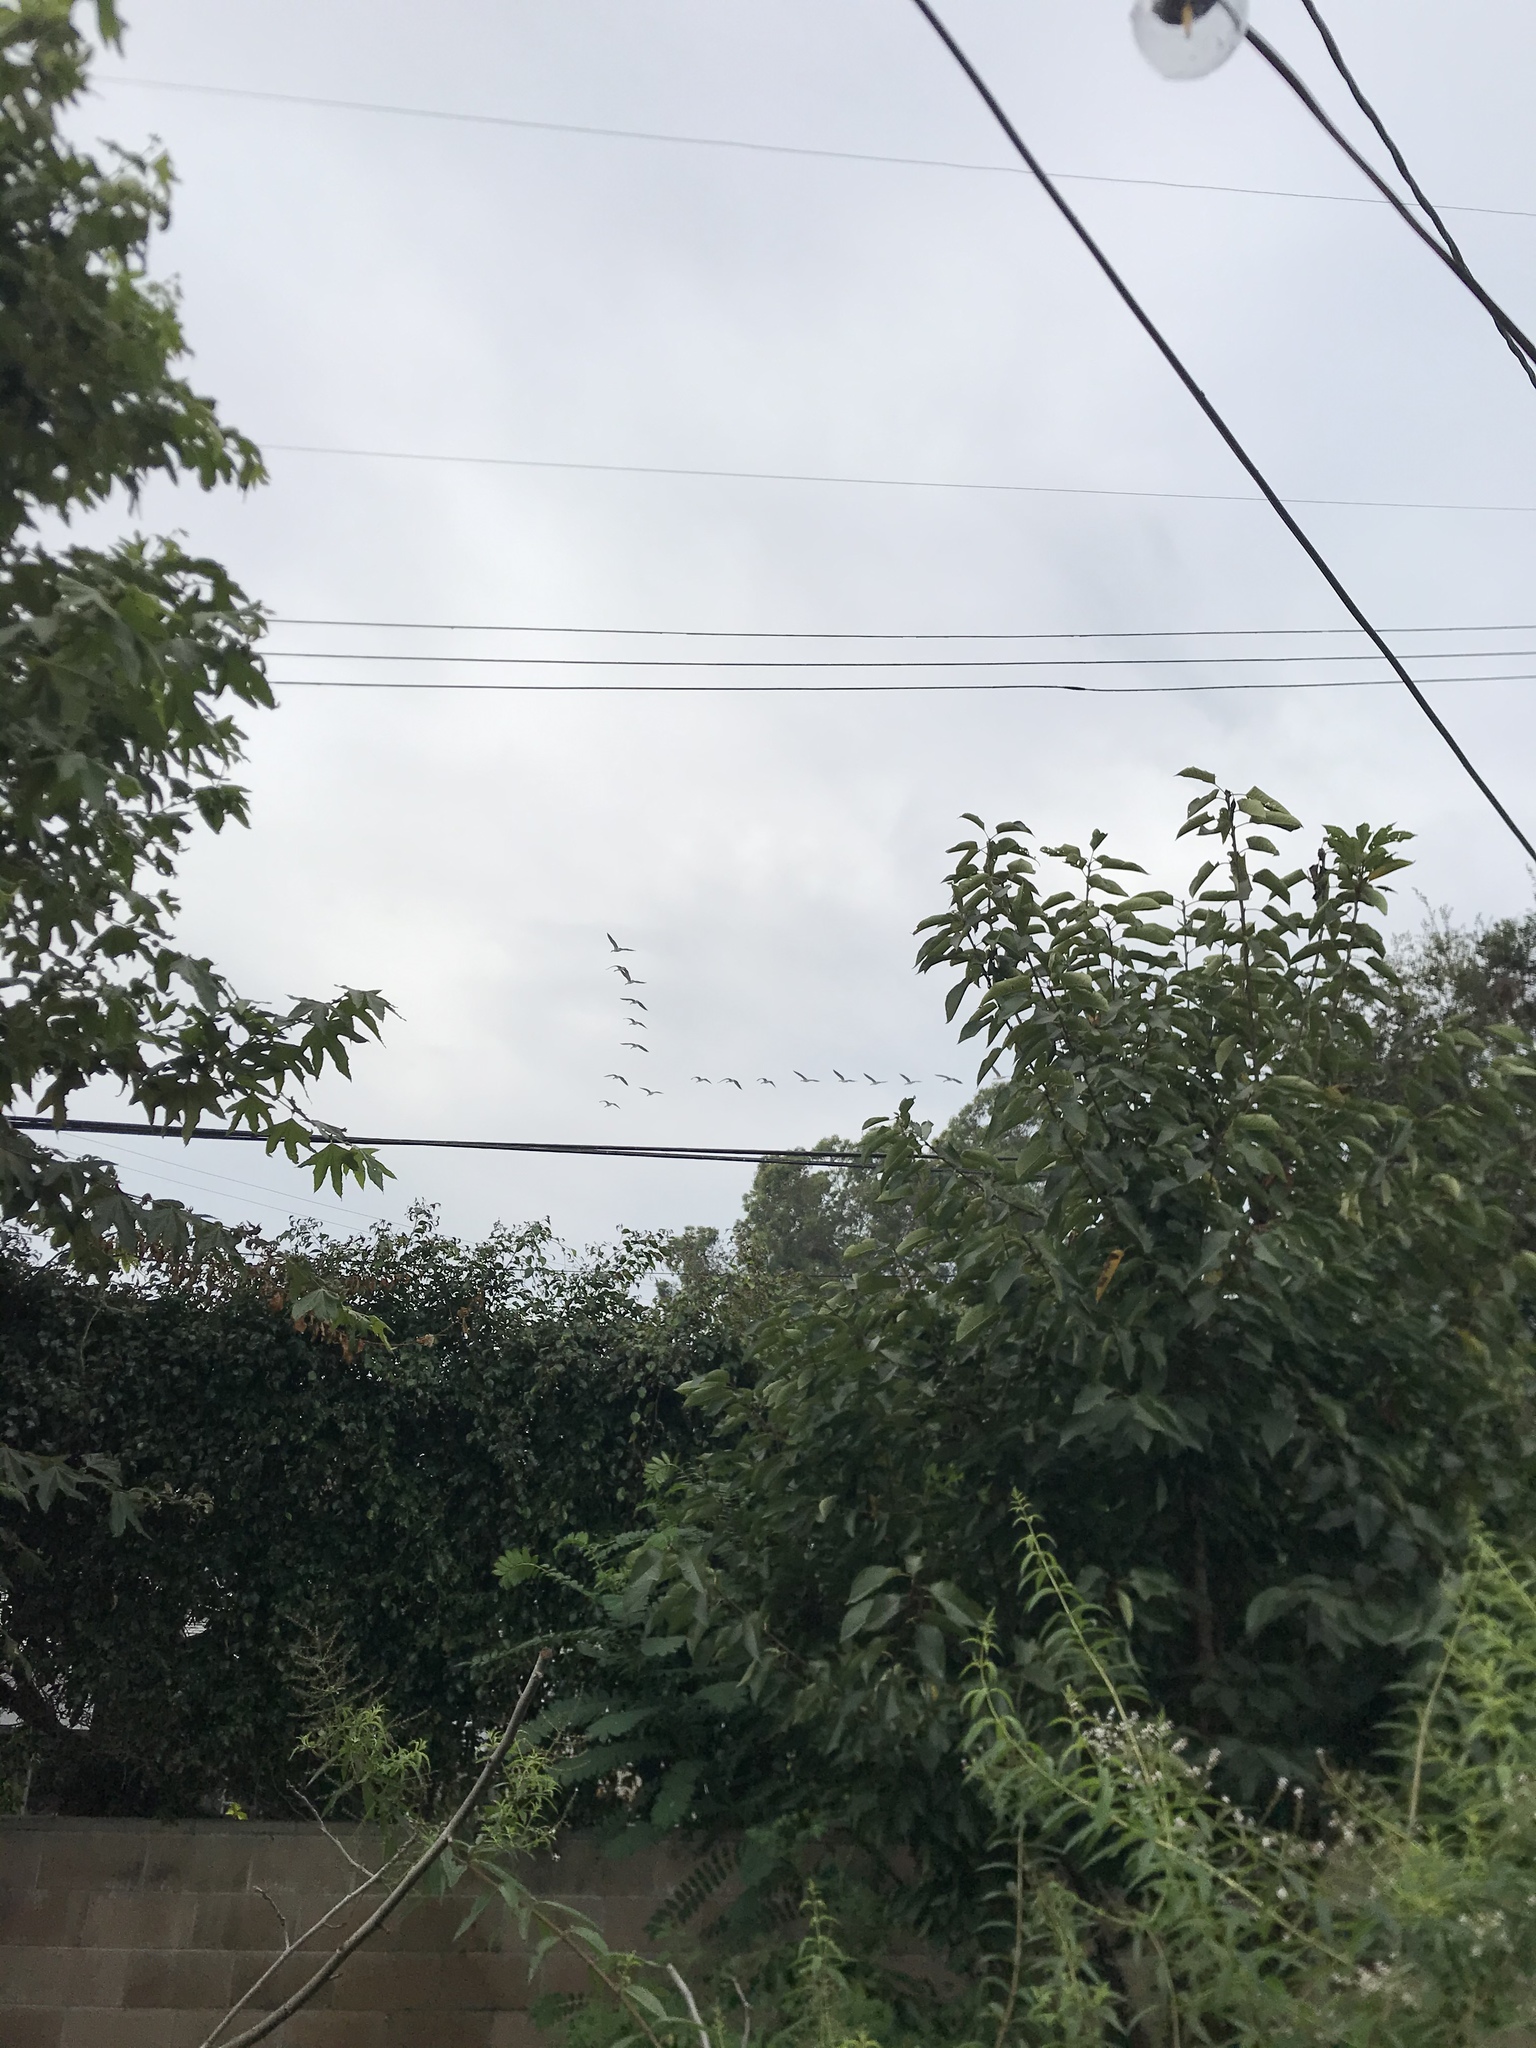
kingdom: Animalia
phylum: Chordata
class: Aves
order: Anseriformes
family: Anatidae
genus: Branta
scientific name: Branta canadensis
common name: Canada goose
